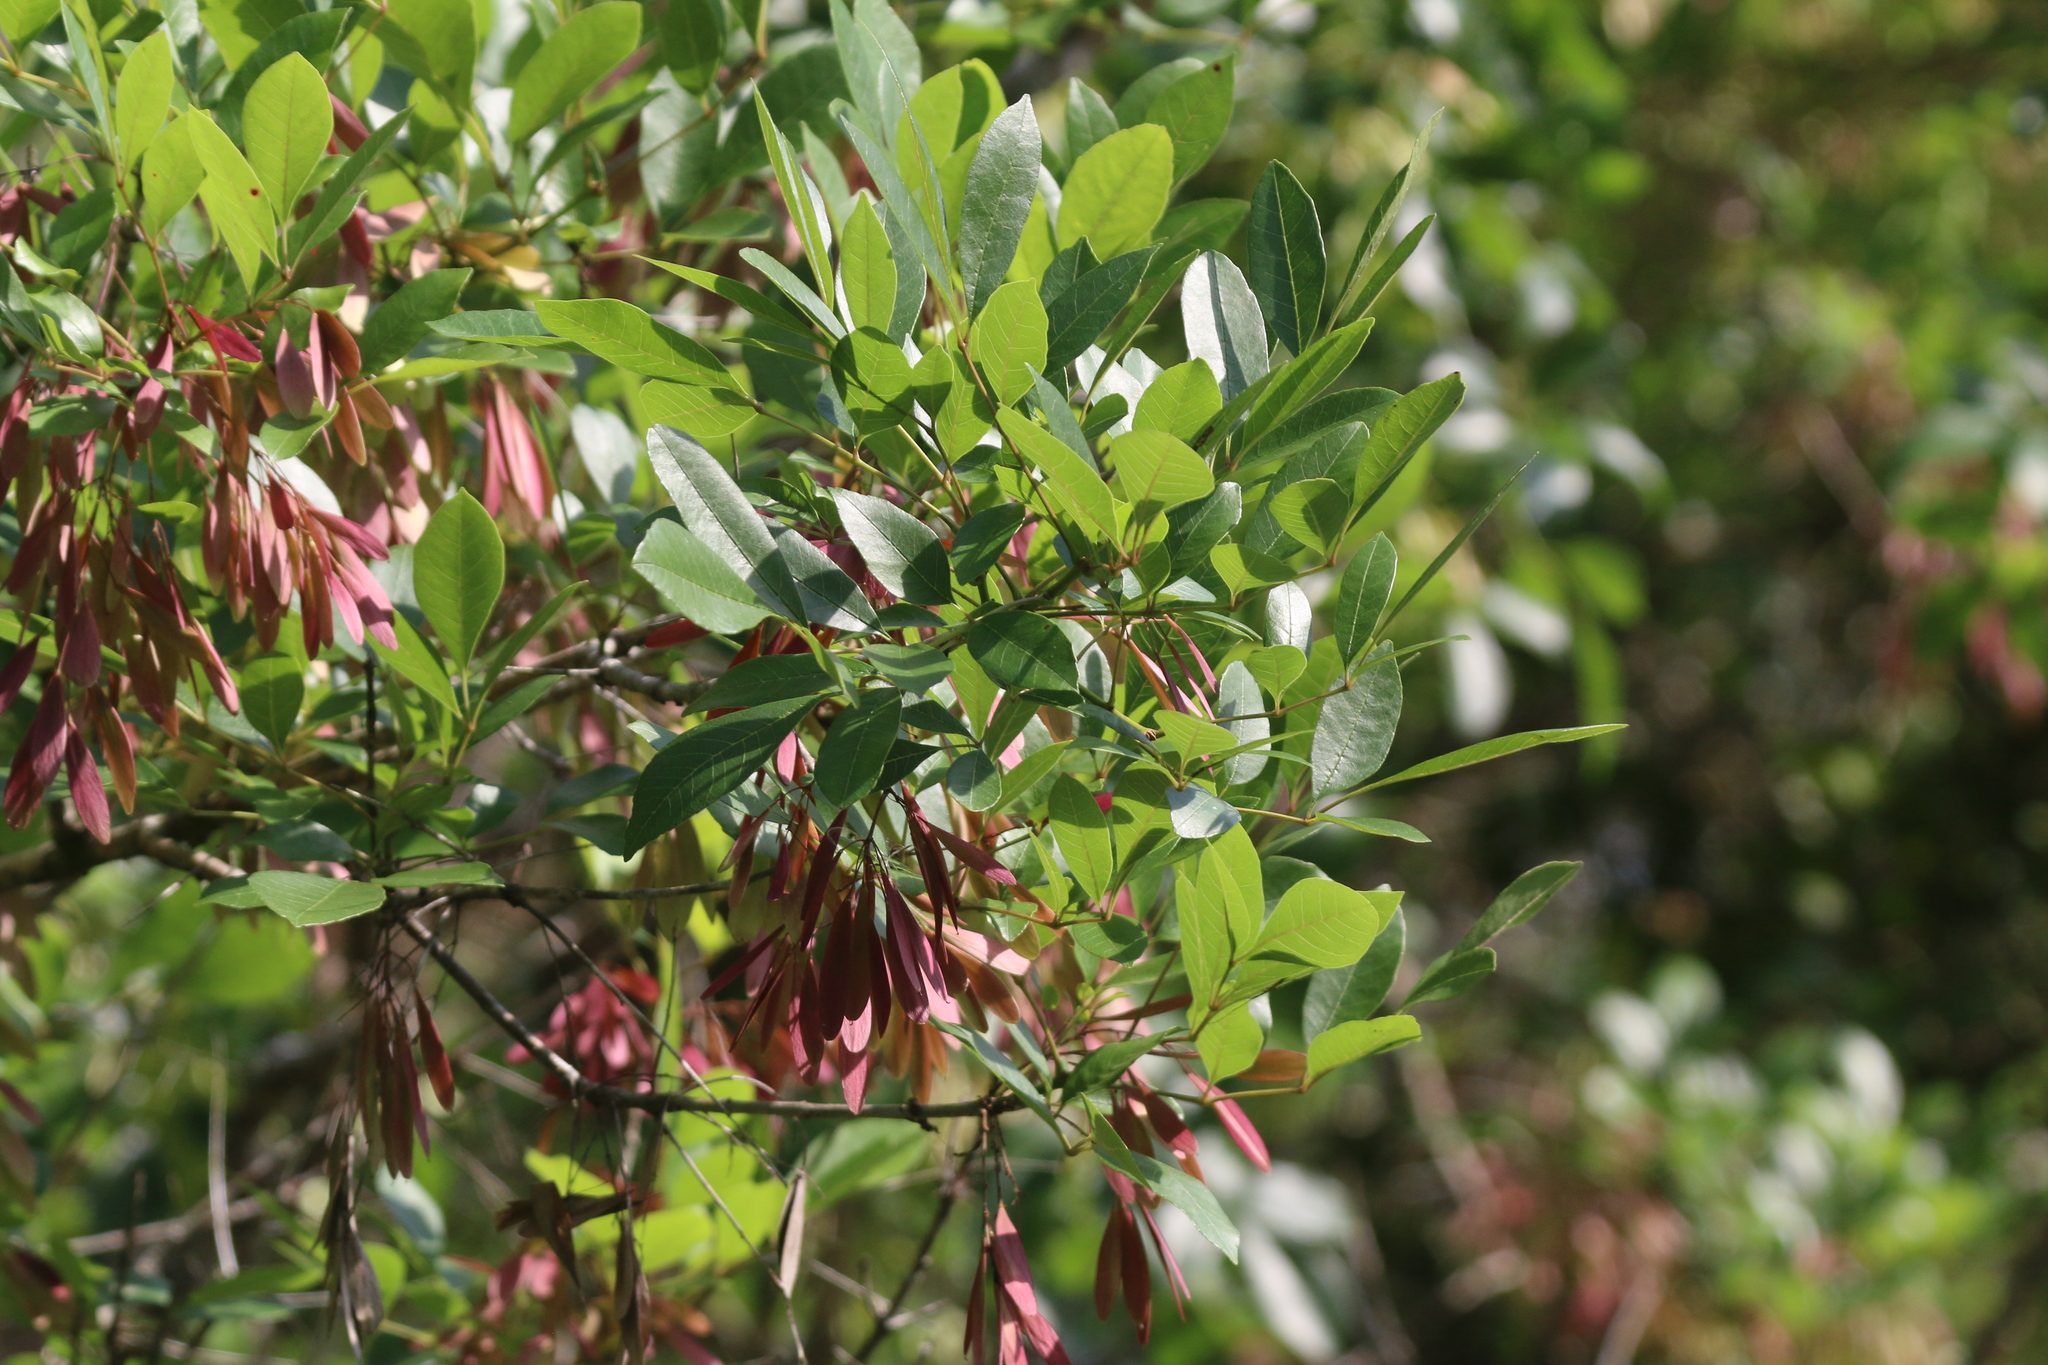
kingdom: Plantae
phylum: Tracheophyta
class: Magnoliopsida
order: Lamiales
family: Oleaceae
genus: Fraxinus
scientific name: Fraxinus caroliniana
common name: Carolina ash
